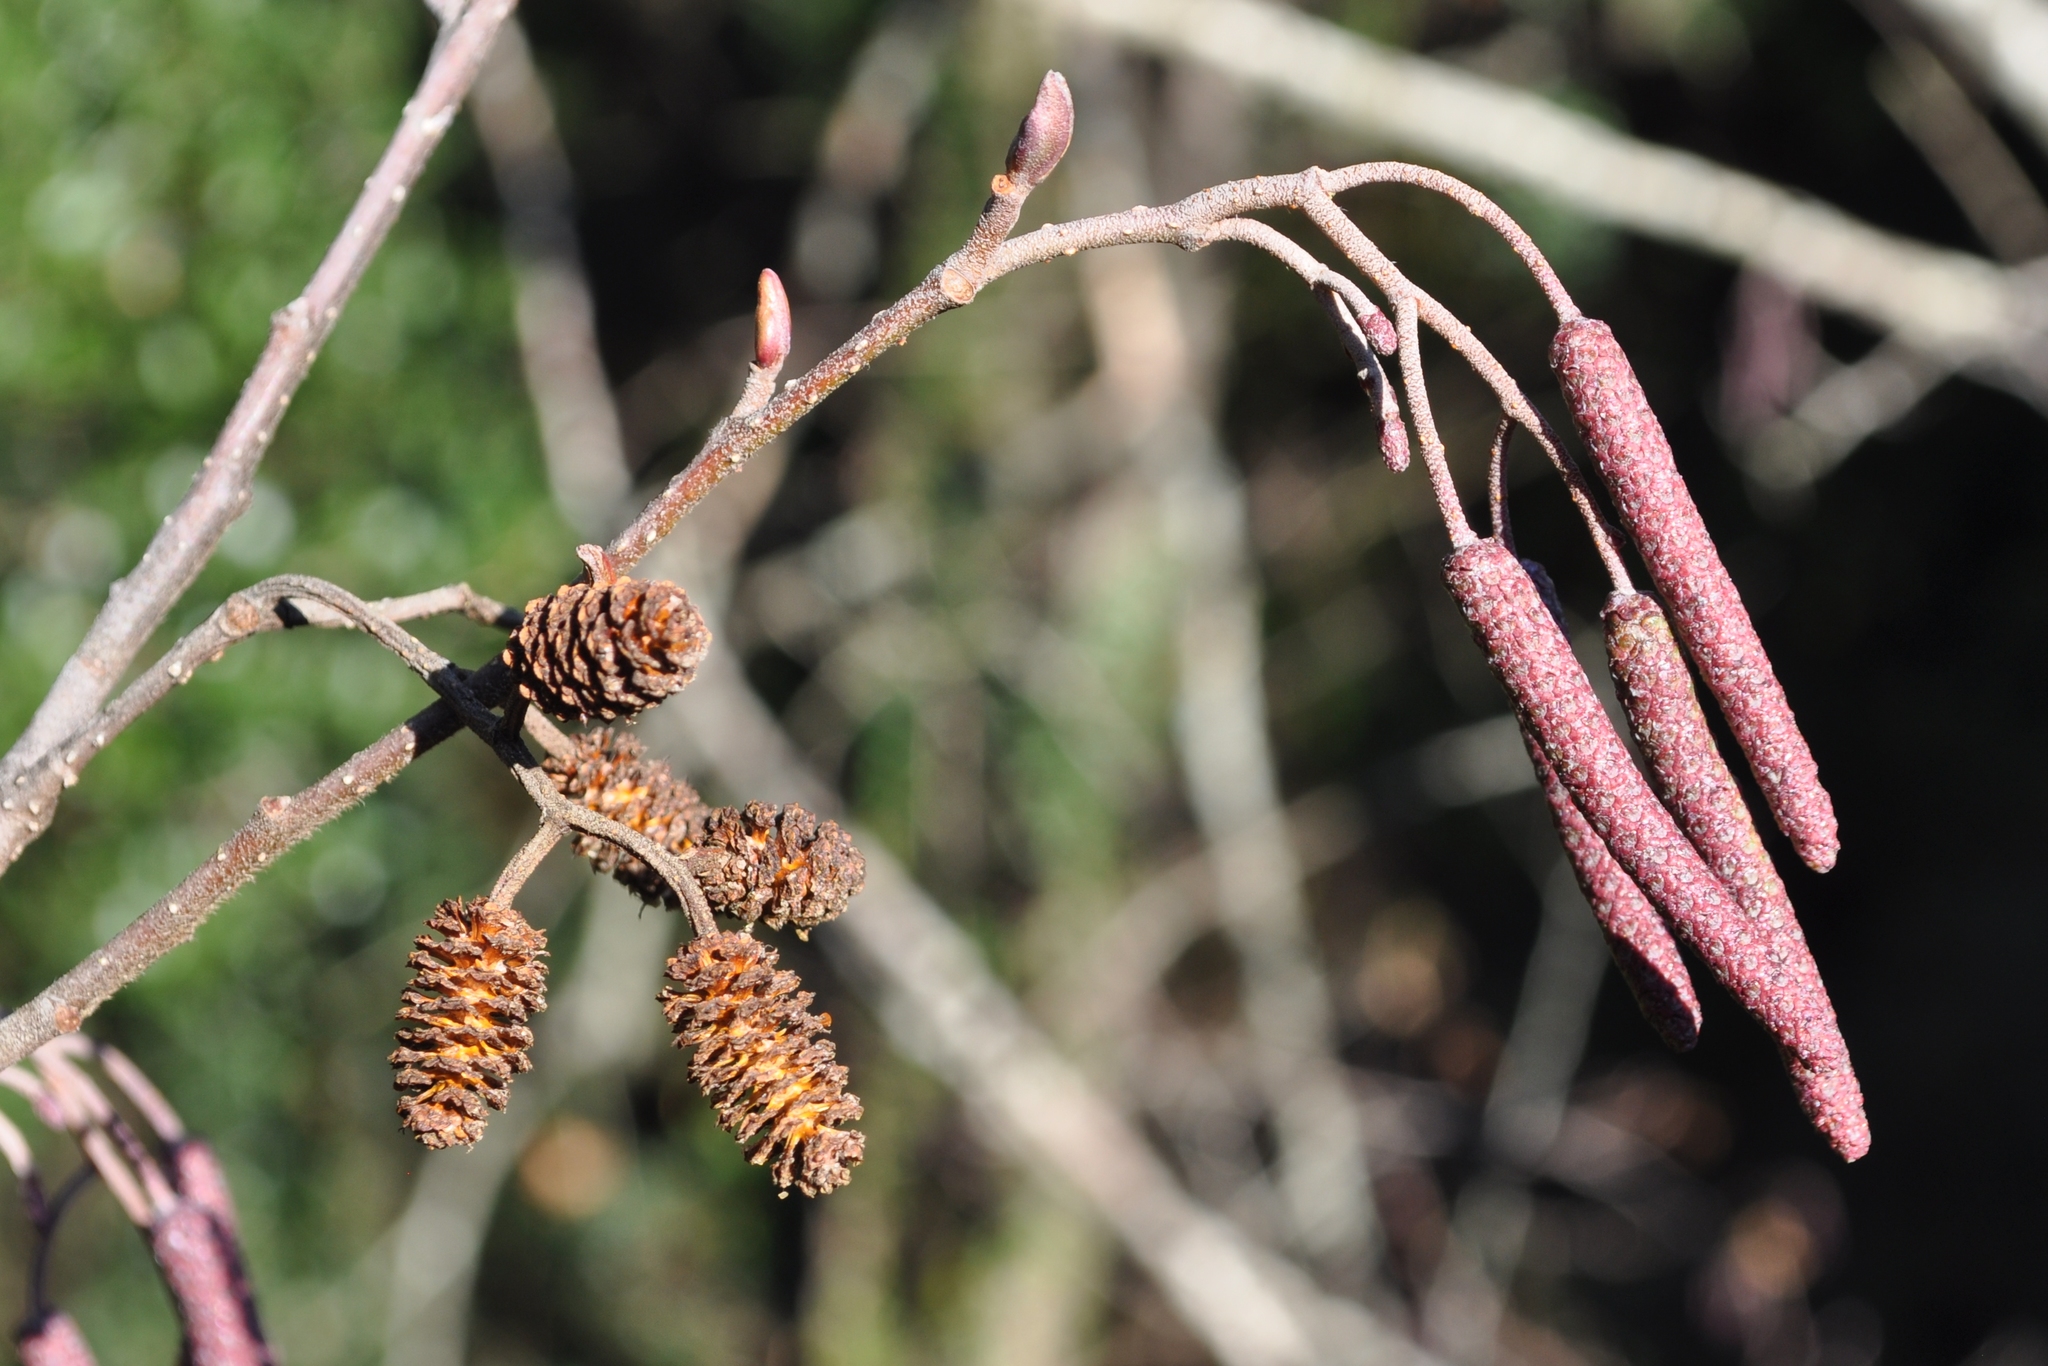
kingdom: Plantae
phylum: Tracheophyta
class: Magnoliopsida
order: Fagales
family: Betulaceae
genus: Alnus
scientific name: Alnus glutinosa
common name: Black alder
